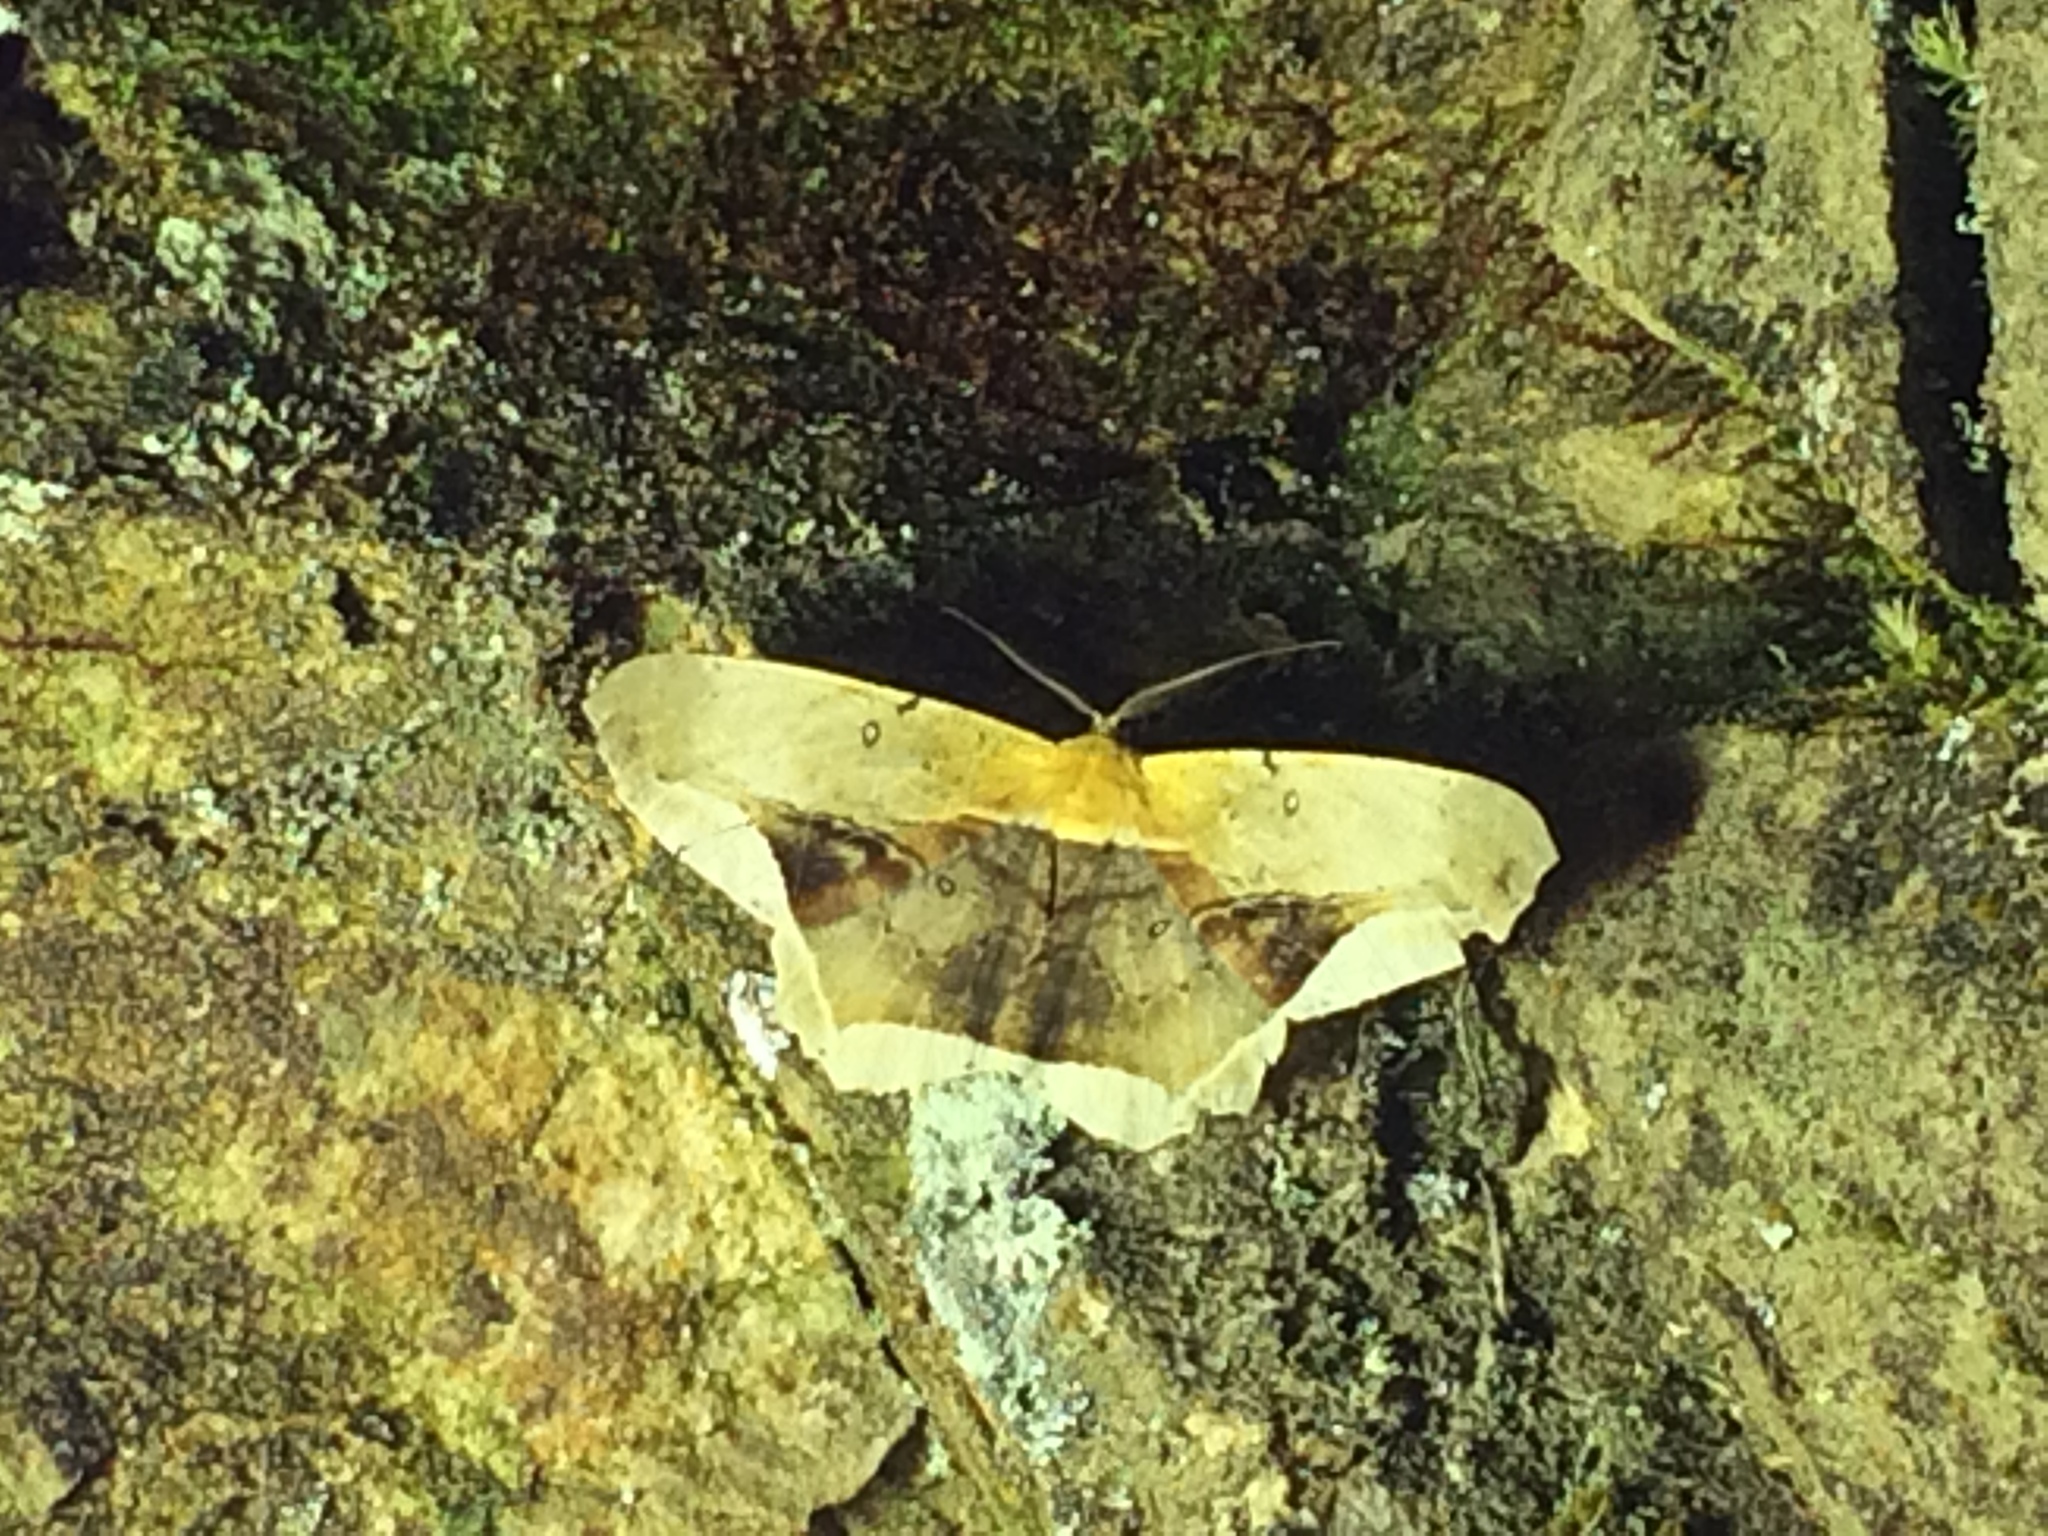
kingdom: Animalia
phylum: Arthropoda
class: Insecta
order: Lepidoptera
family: Geometridae
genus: Chorodna
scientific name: Chorodna metaphaearia
